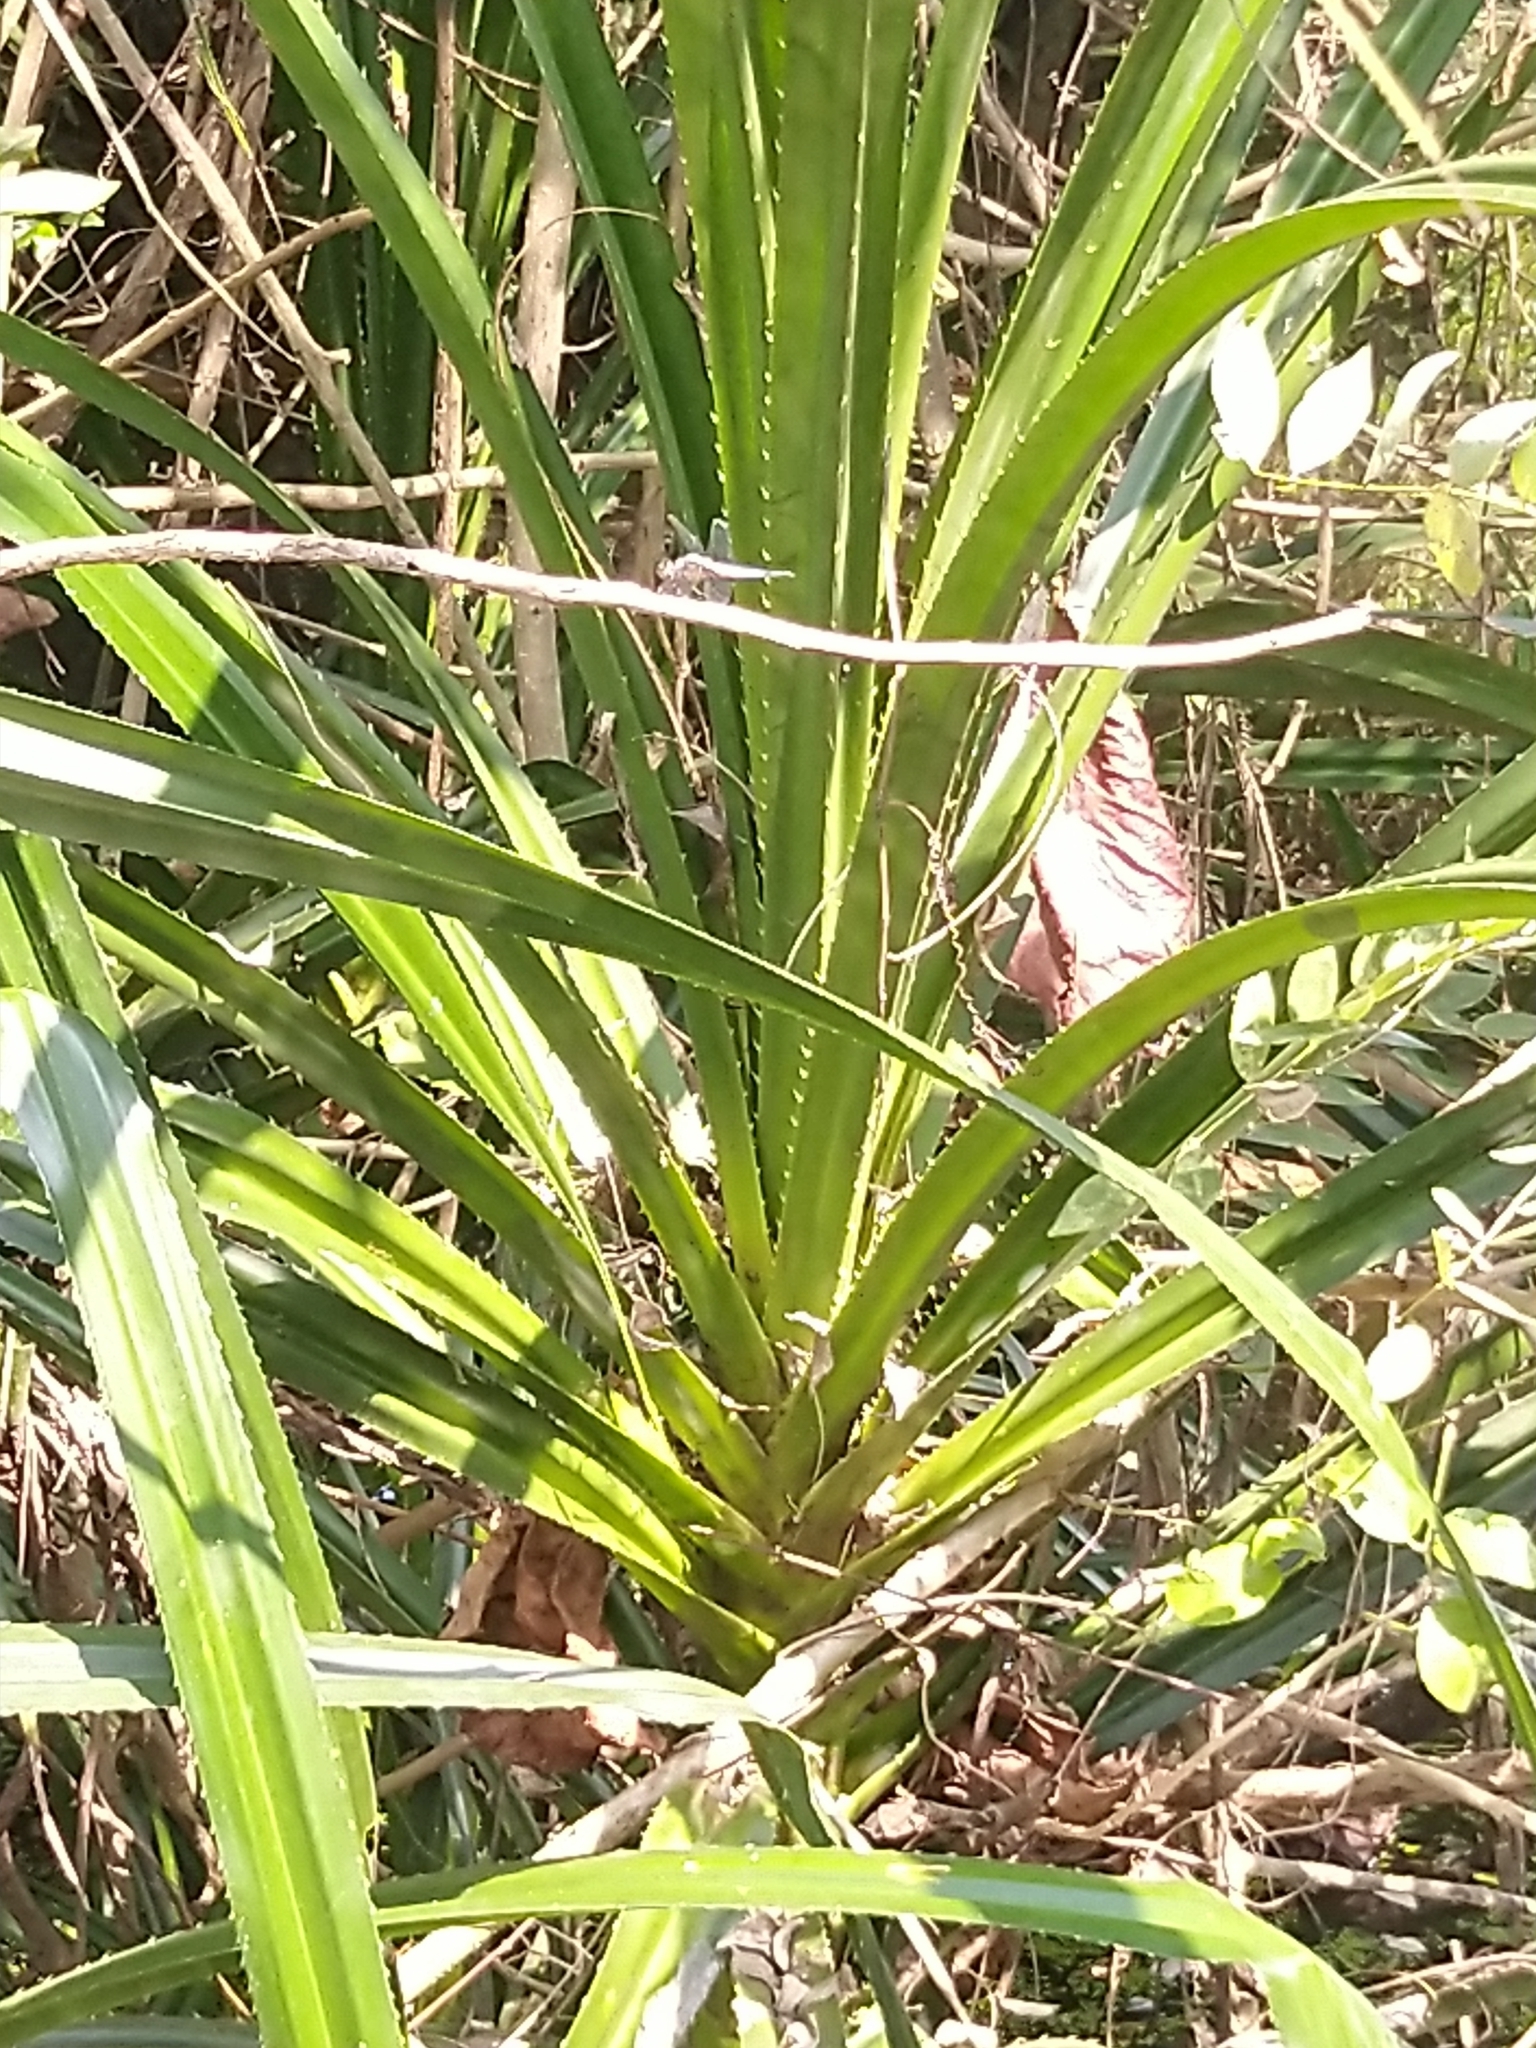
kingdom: Animalia
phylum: Arthropoda
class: Insecta
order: Odonata
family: Libellulidae
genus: Brachydiplax
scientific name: Brachydiplax chalybea
